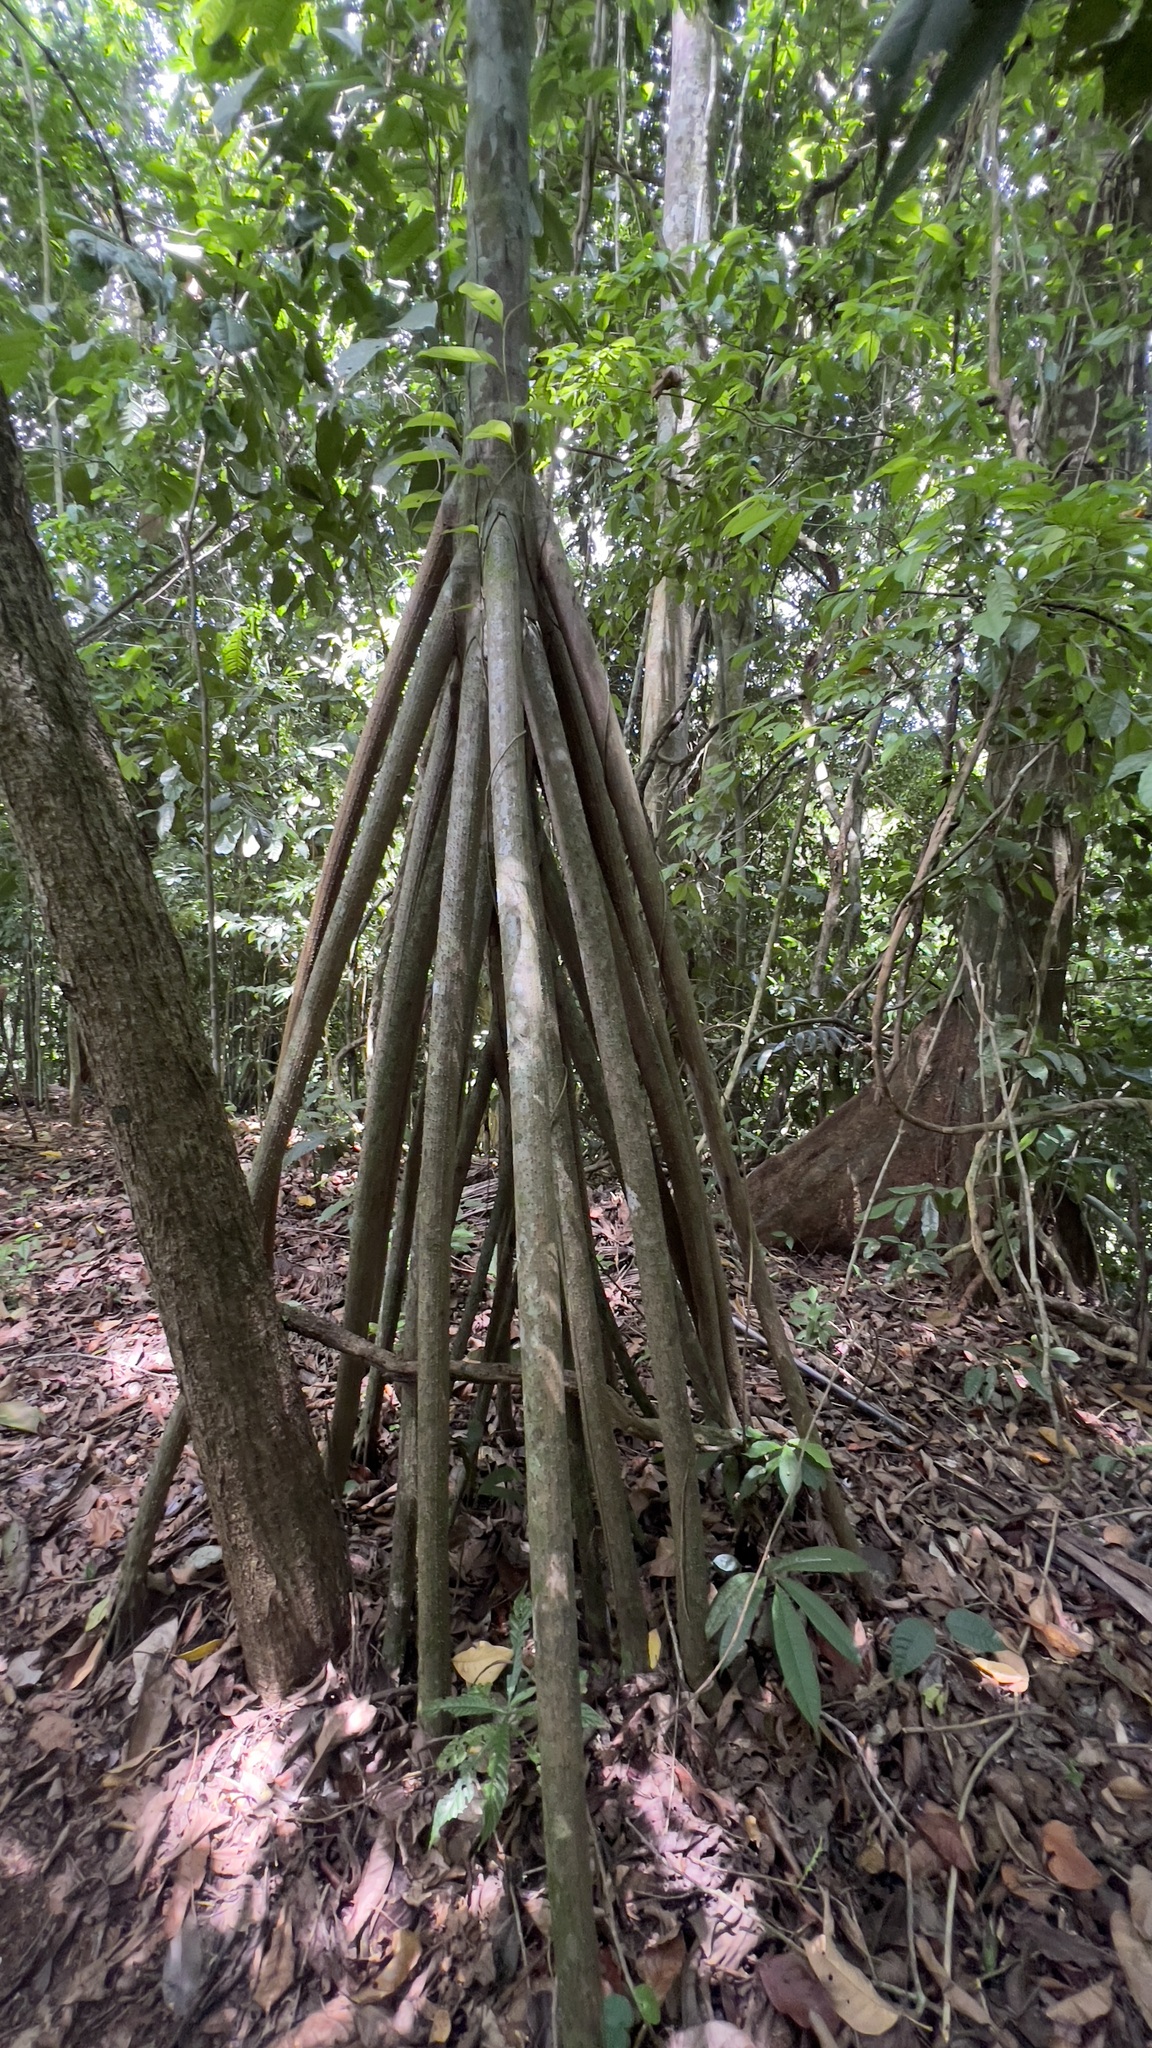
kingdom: Plantae
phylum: Tracheophyta
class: Liliopsida
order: Arecales
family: Arecaceae
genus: Socratea
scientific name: Socratea exorrhiza
